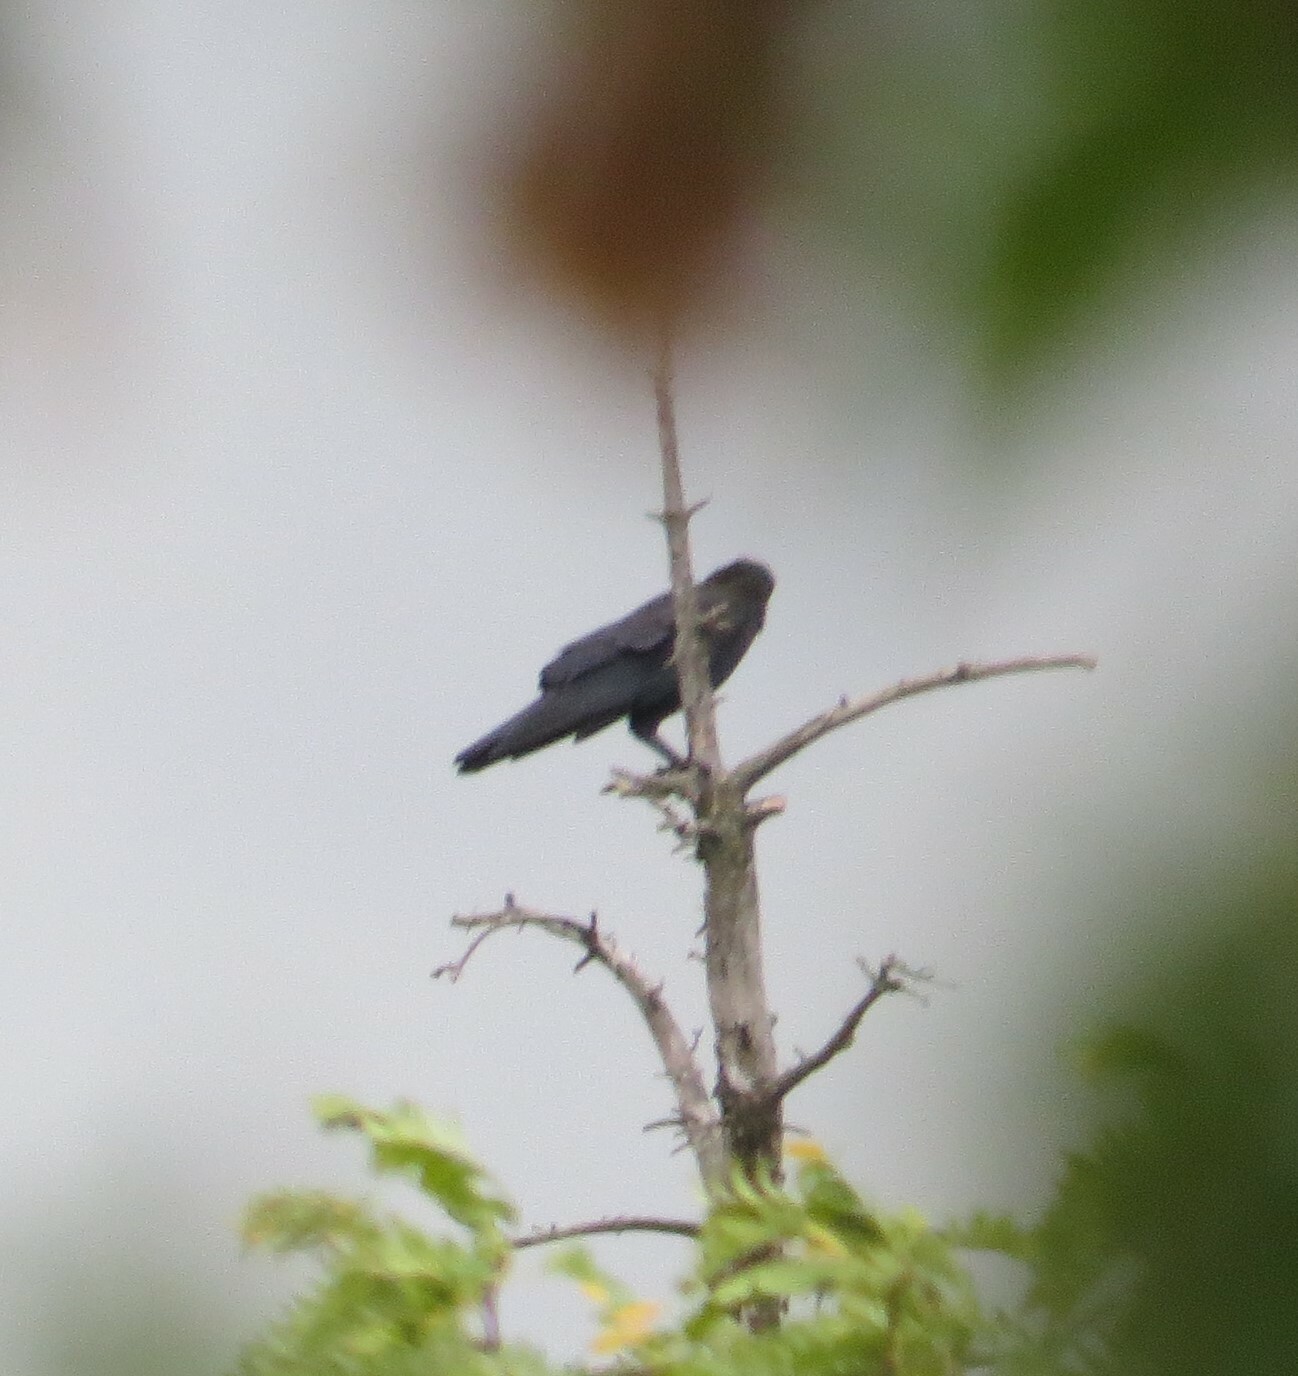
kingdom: Animalia
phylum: Chordata
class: Aves
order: Passeriformes
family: Corvidae
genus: Corvus
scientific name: Corvus brachyrhynchos
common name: American crow
